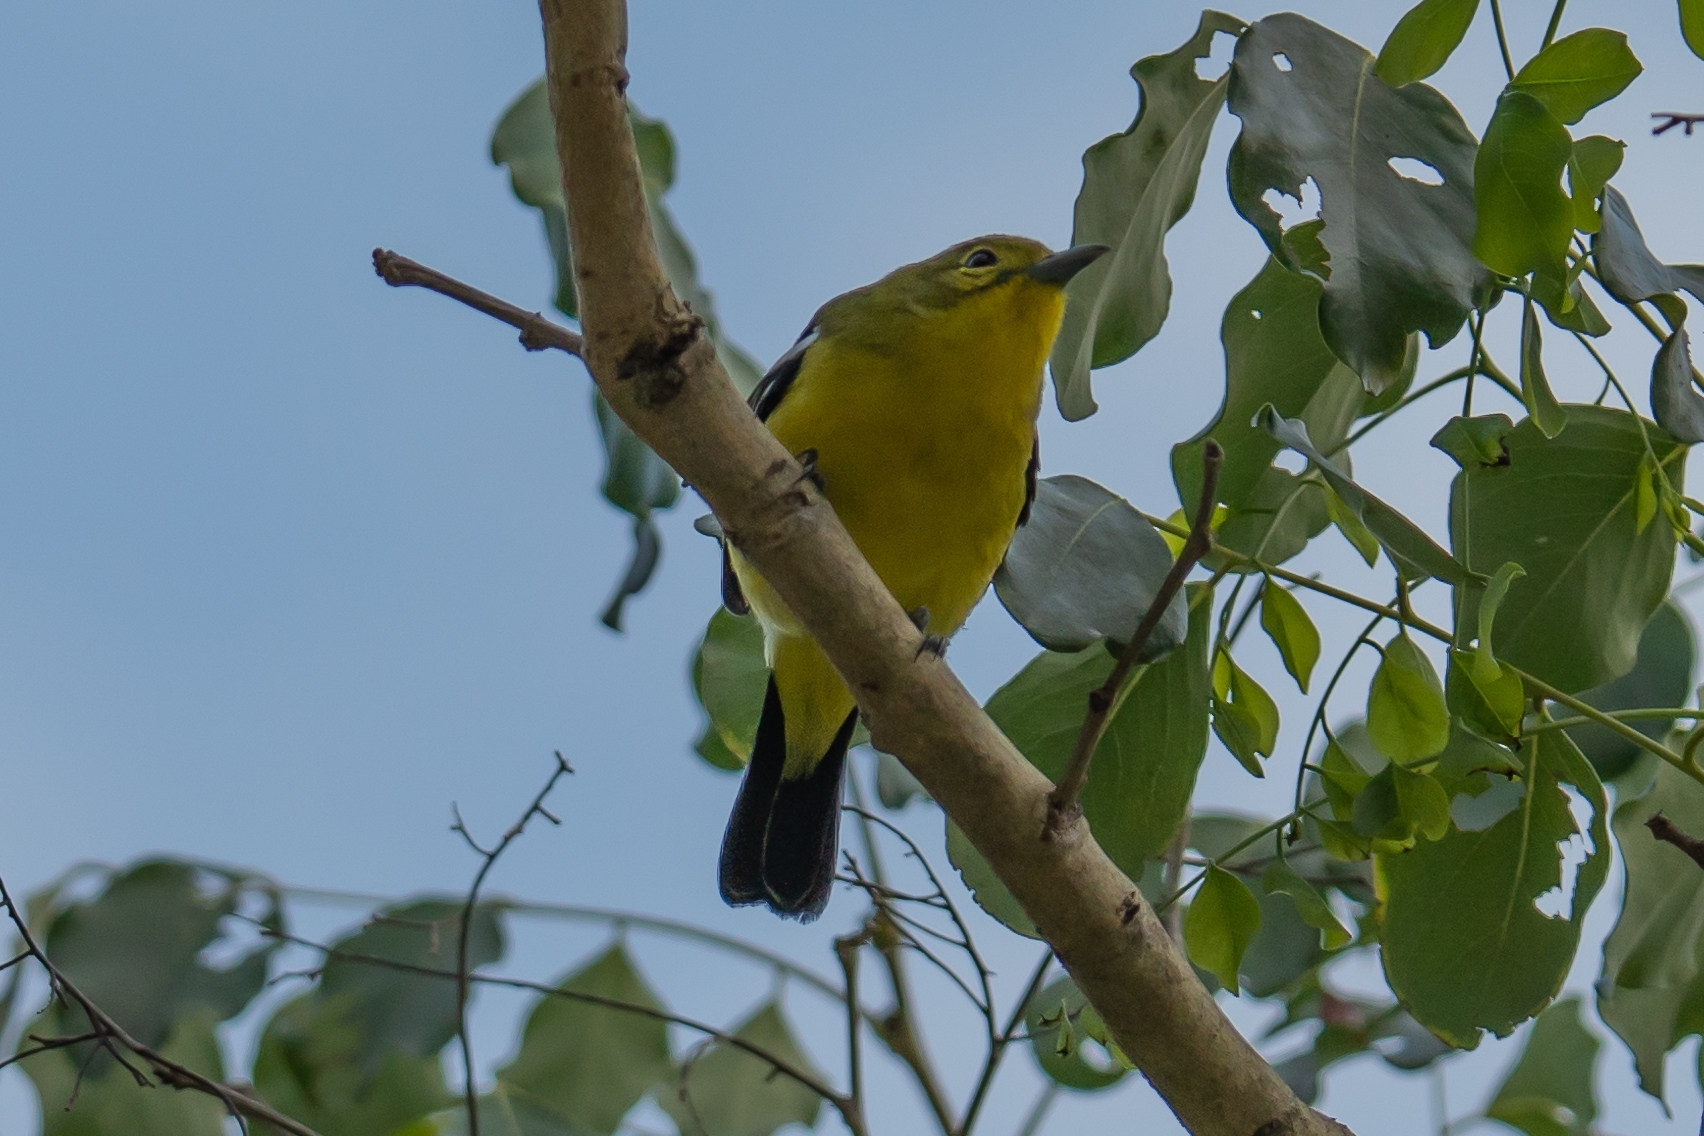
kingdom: Animalia
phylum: Chordata
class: Aves
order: Passeriformes
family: Aegithinidae
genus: Aegithina
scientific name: Aegithina tiphia
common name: Common iora
